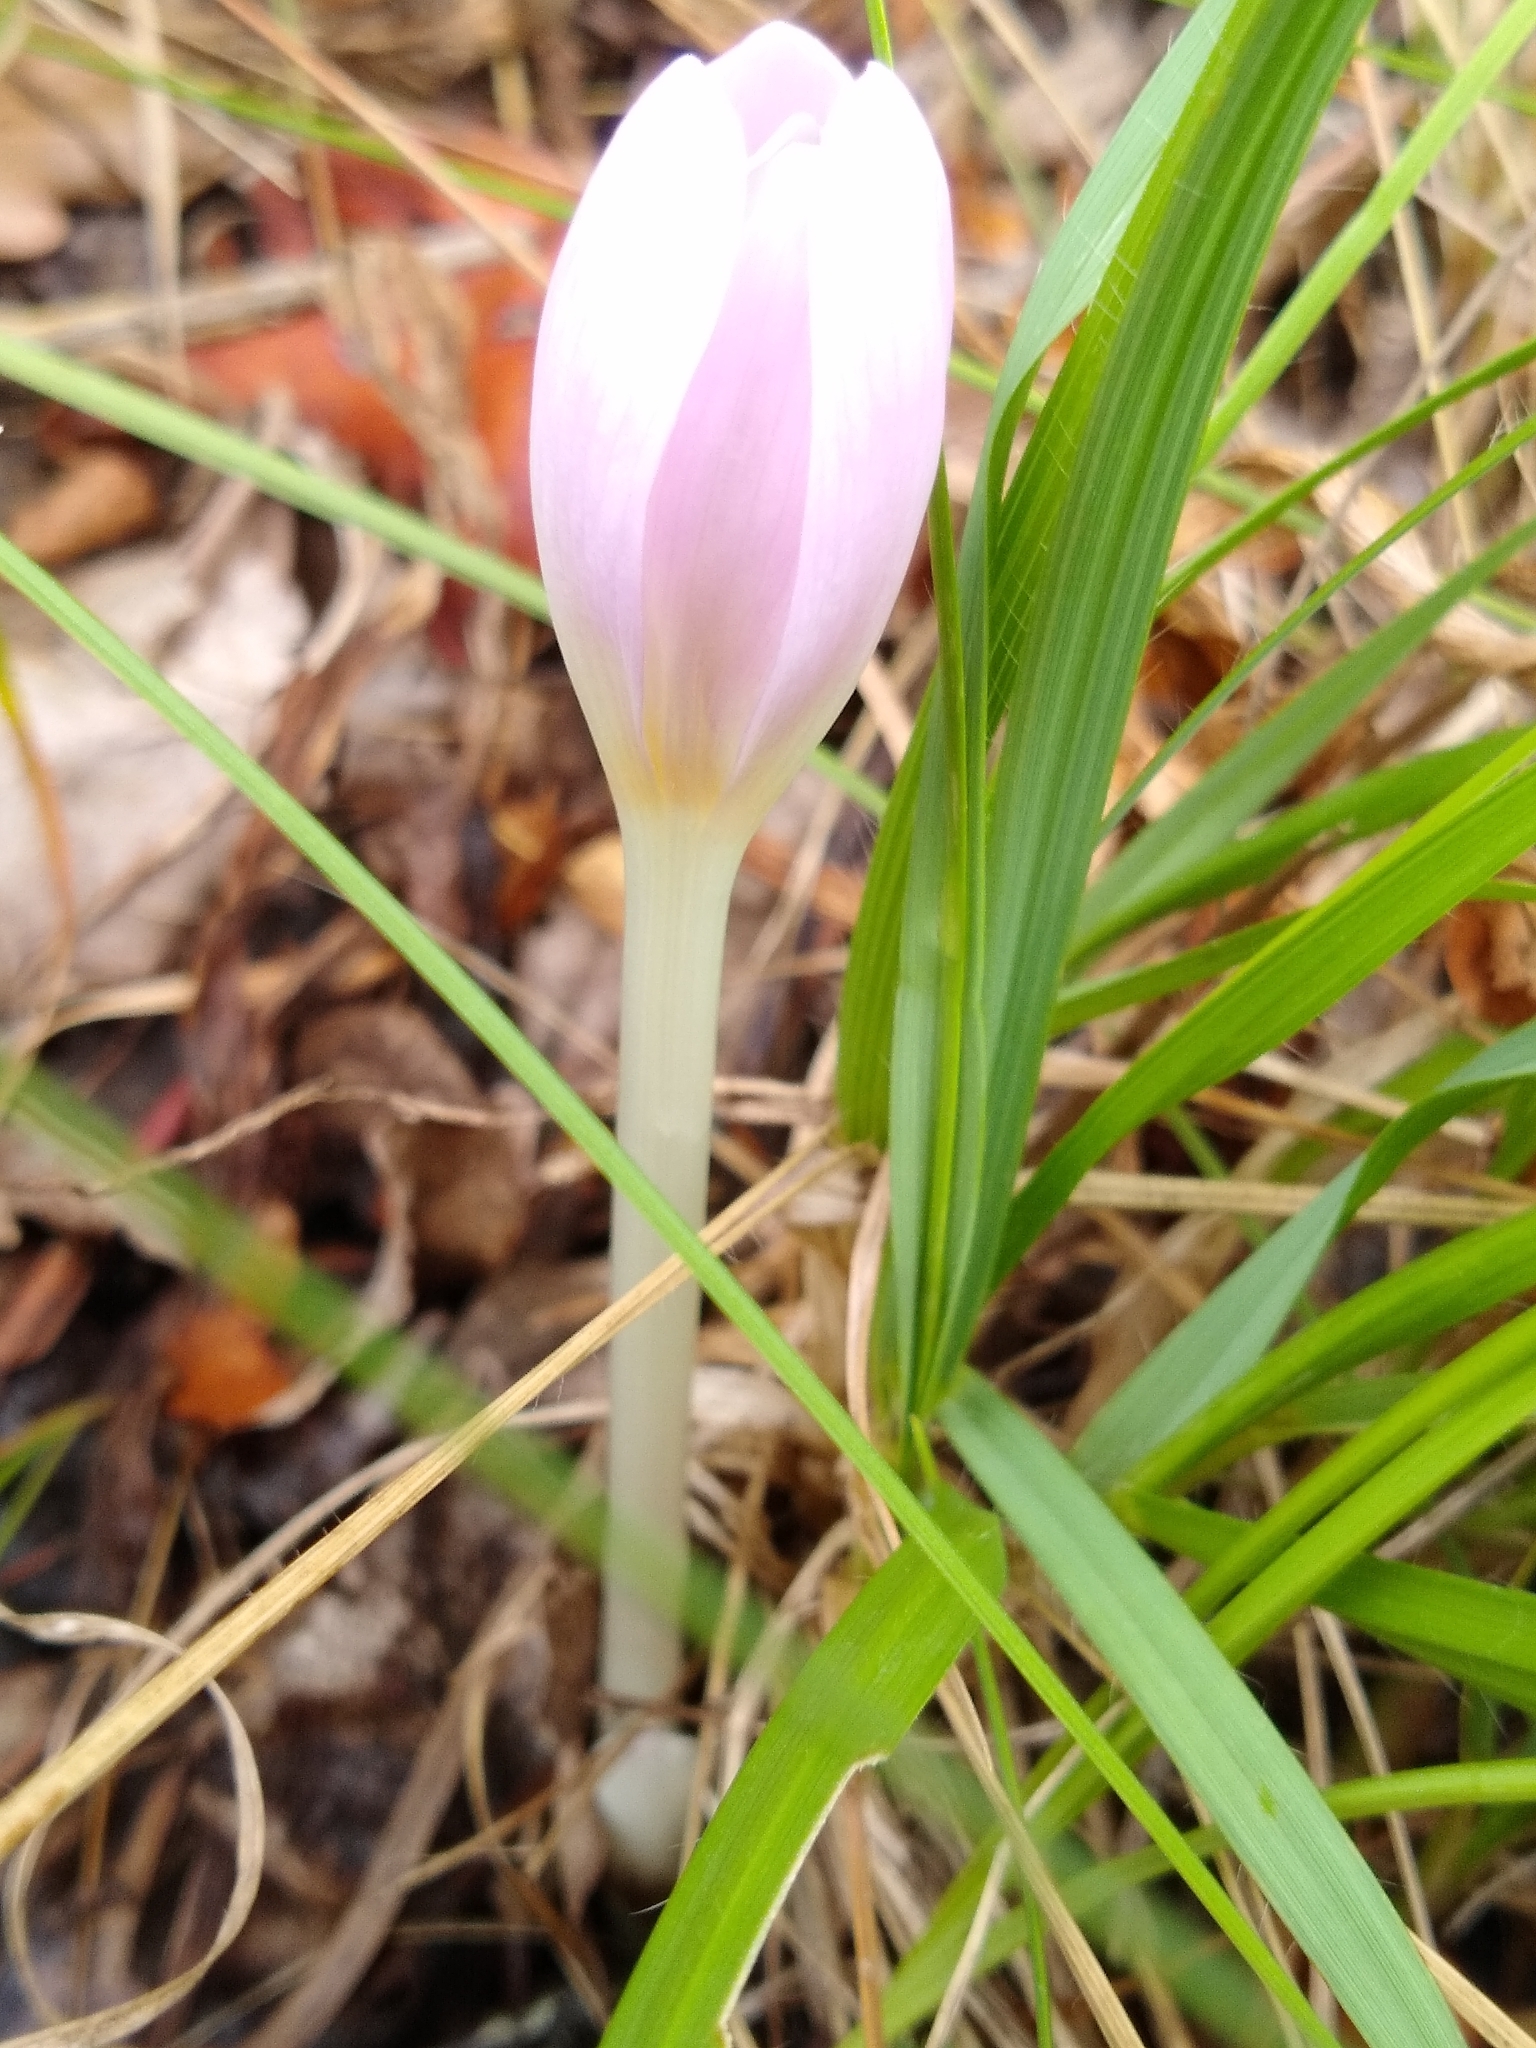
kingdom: Plantae
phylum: Tracheophyta
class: Liliopsida
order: Liliales
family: Colchicaceae
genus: Colchicum
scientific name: Colchicum autumnale
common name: Autumn crocus
